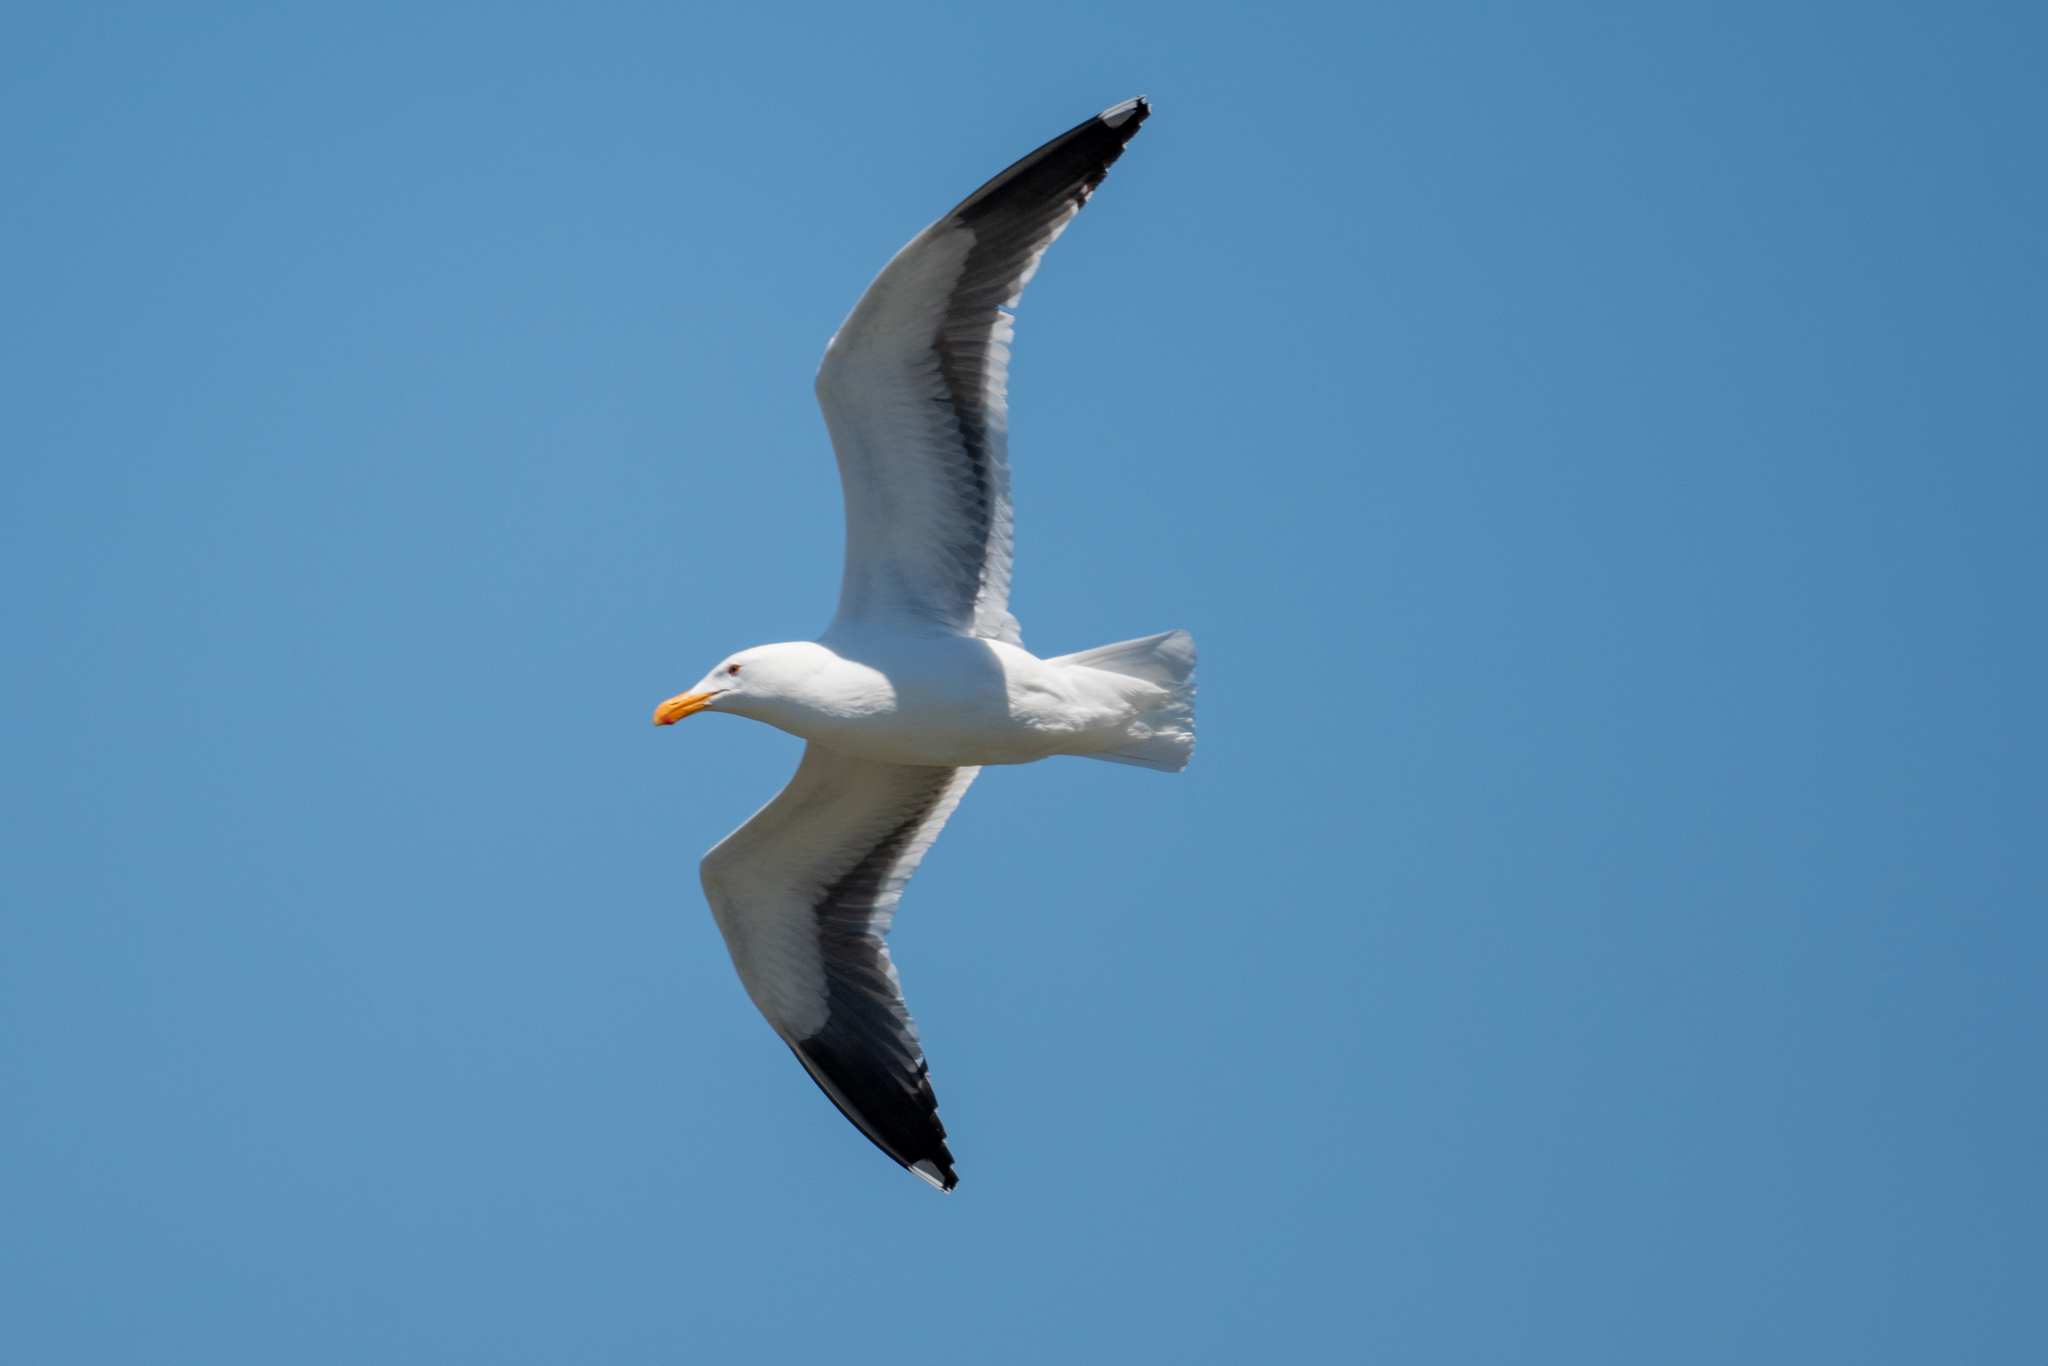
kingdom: Animalia
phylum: Chordata
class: Aves
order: Charadriiformes
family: Laridae
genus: Larus
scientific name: Larus occidentalis
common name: Western gull
